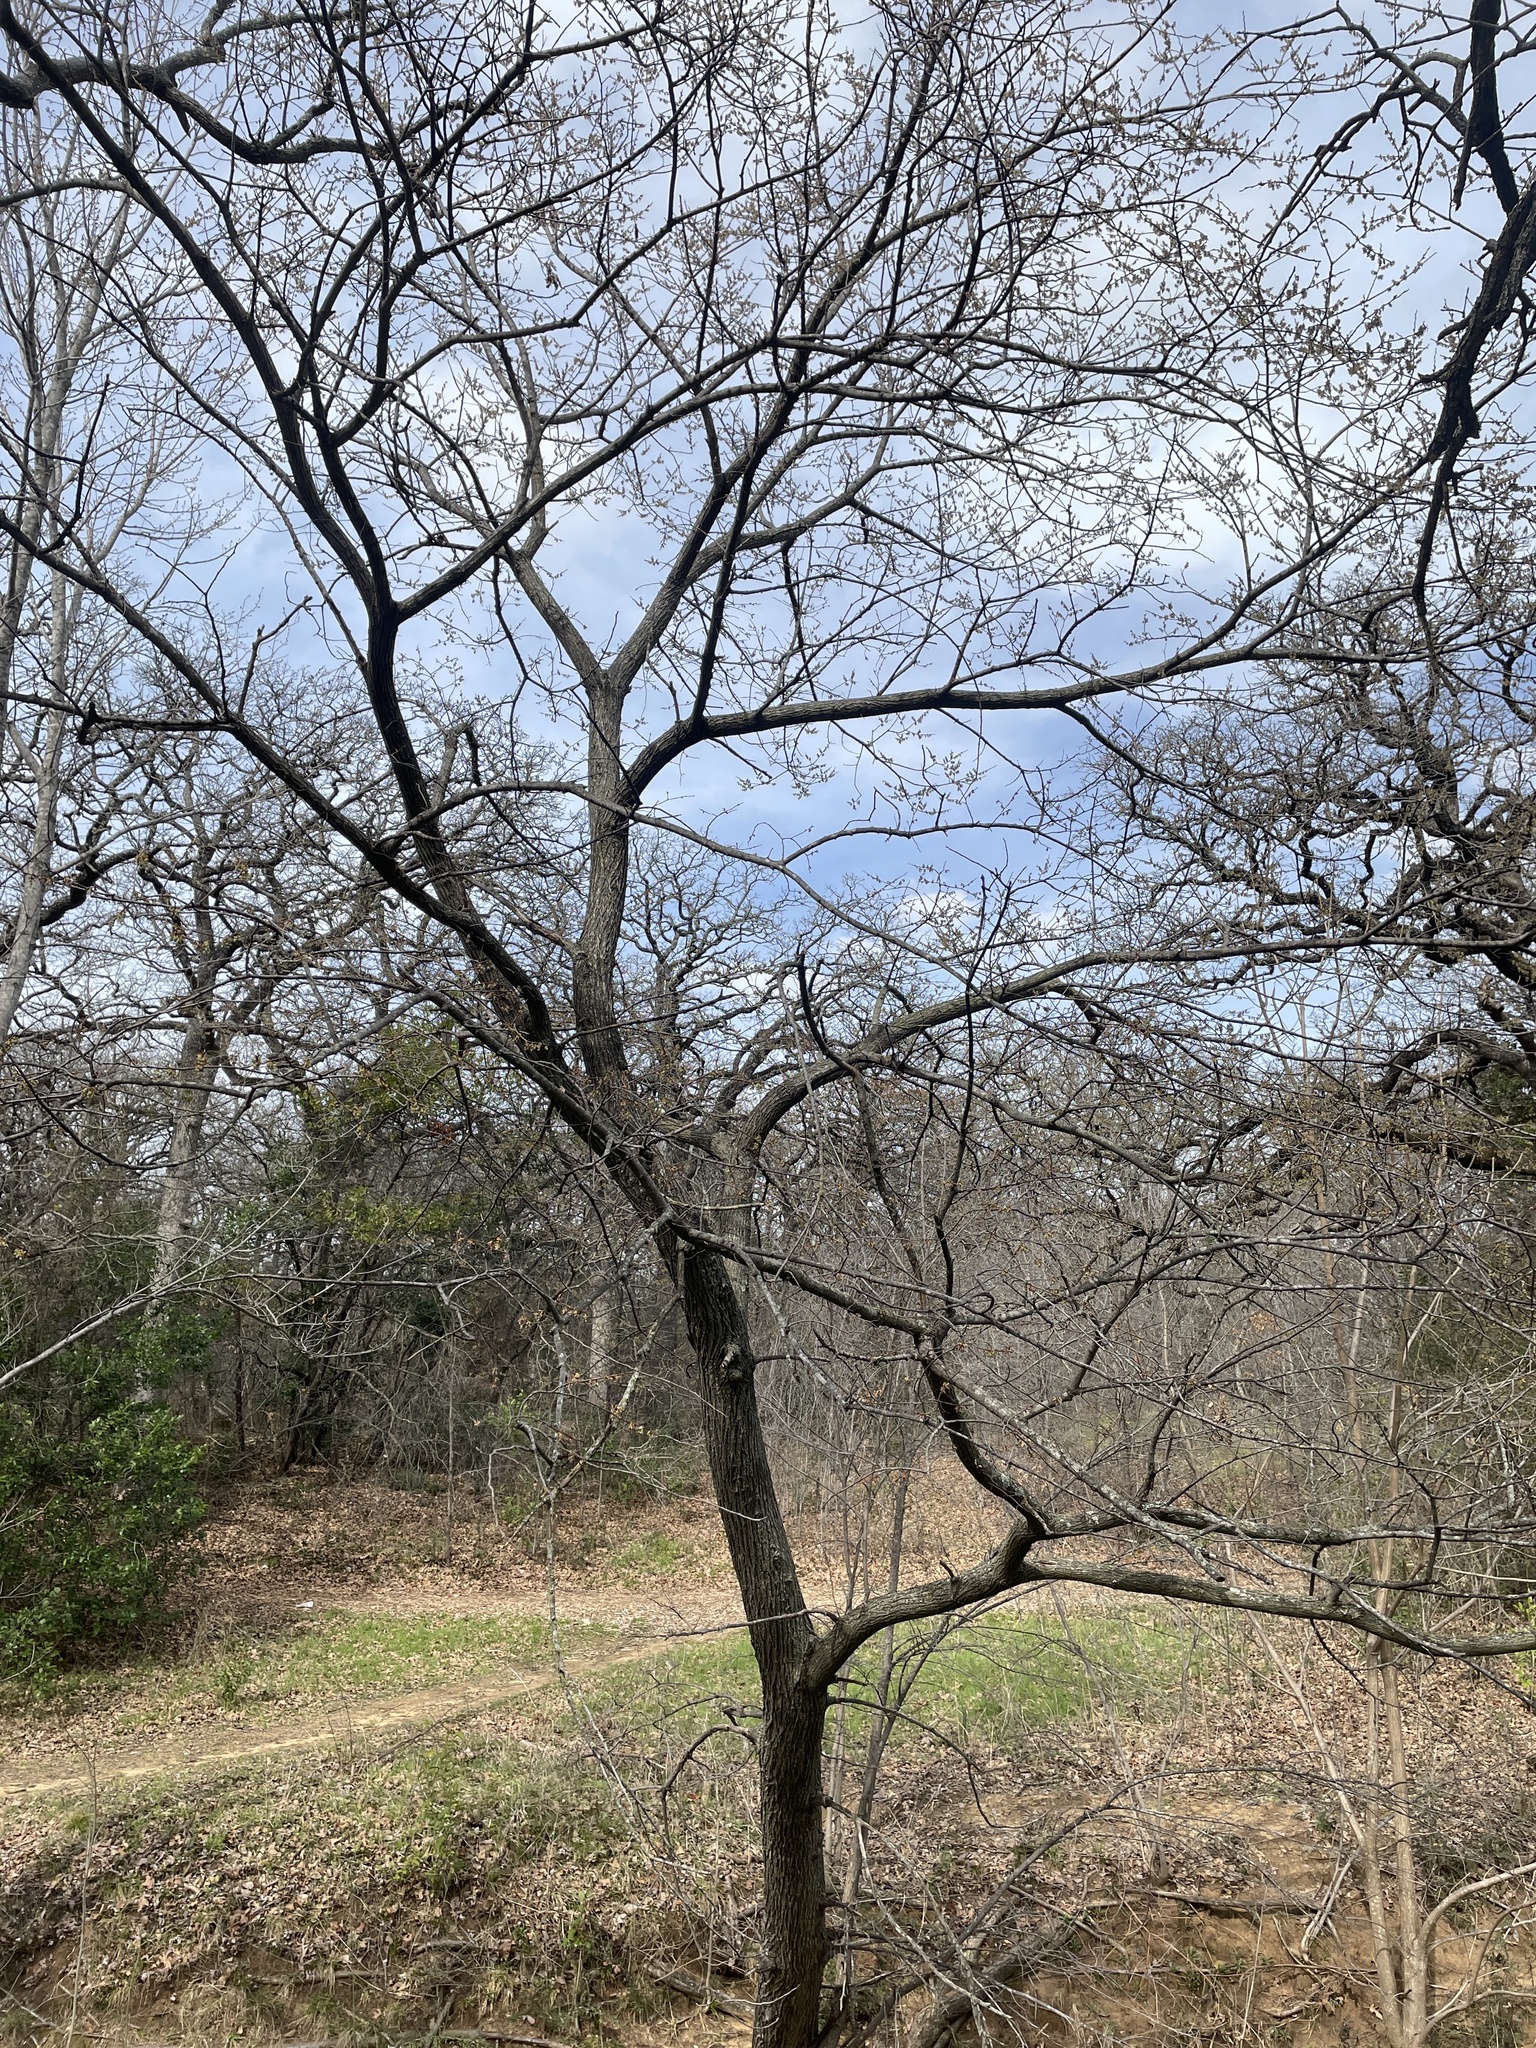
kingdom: Plantae
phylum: Tracheophyta
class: Magnoliopsida
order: Rosales
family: Ulmaceae
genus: Ulmus
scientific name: Ulmus americana
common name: American elm
